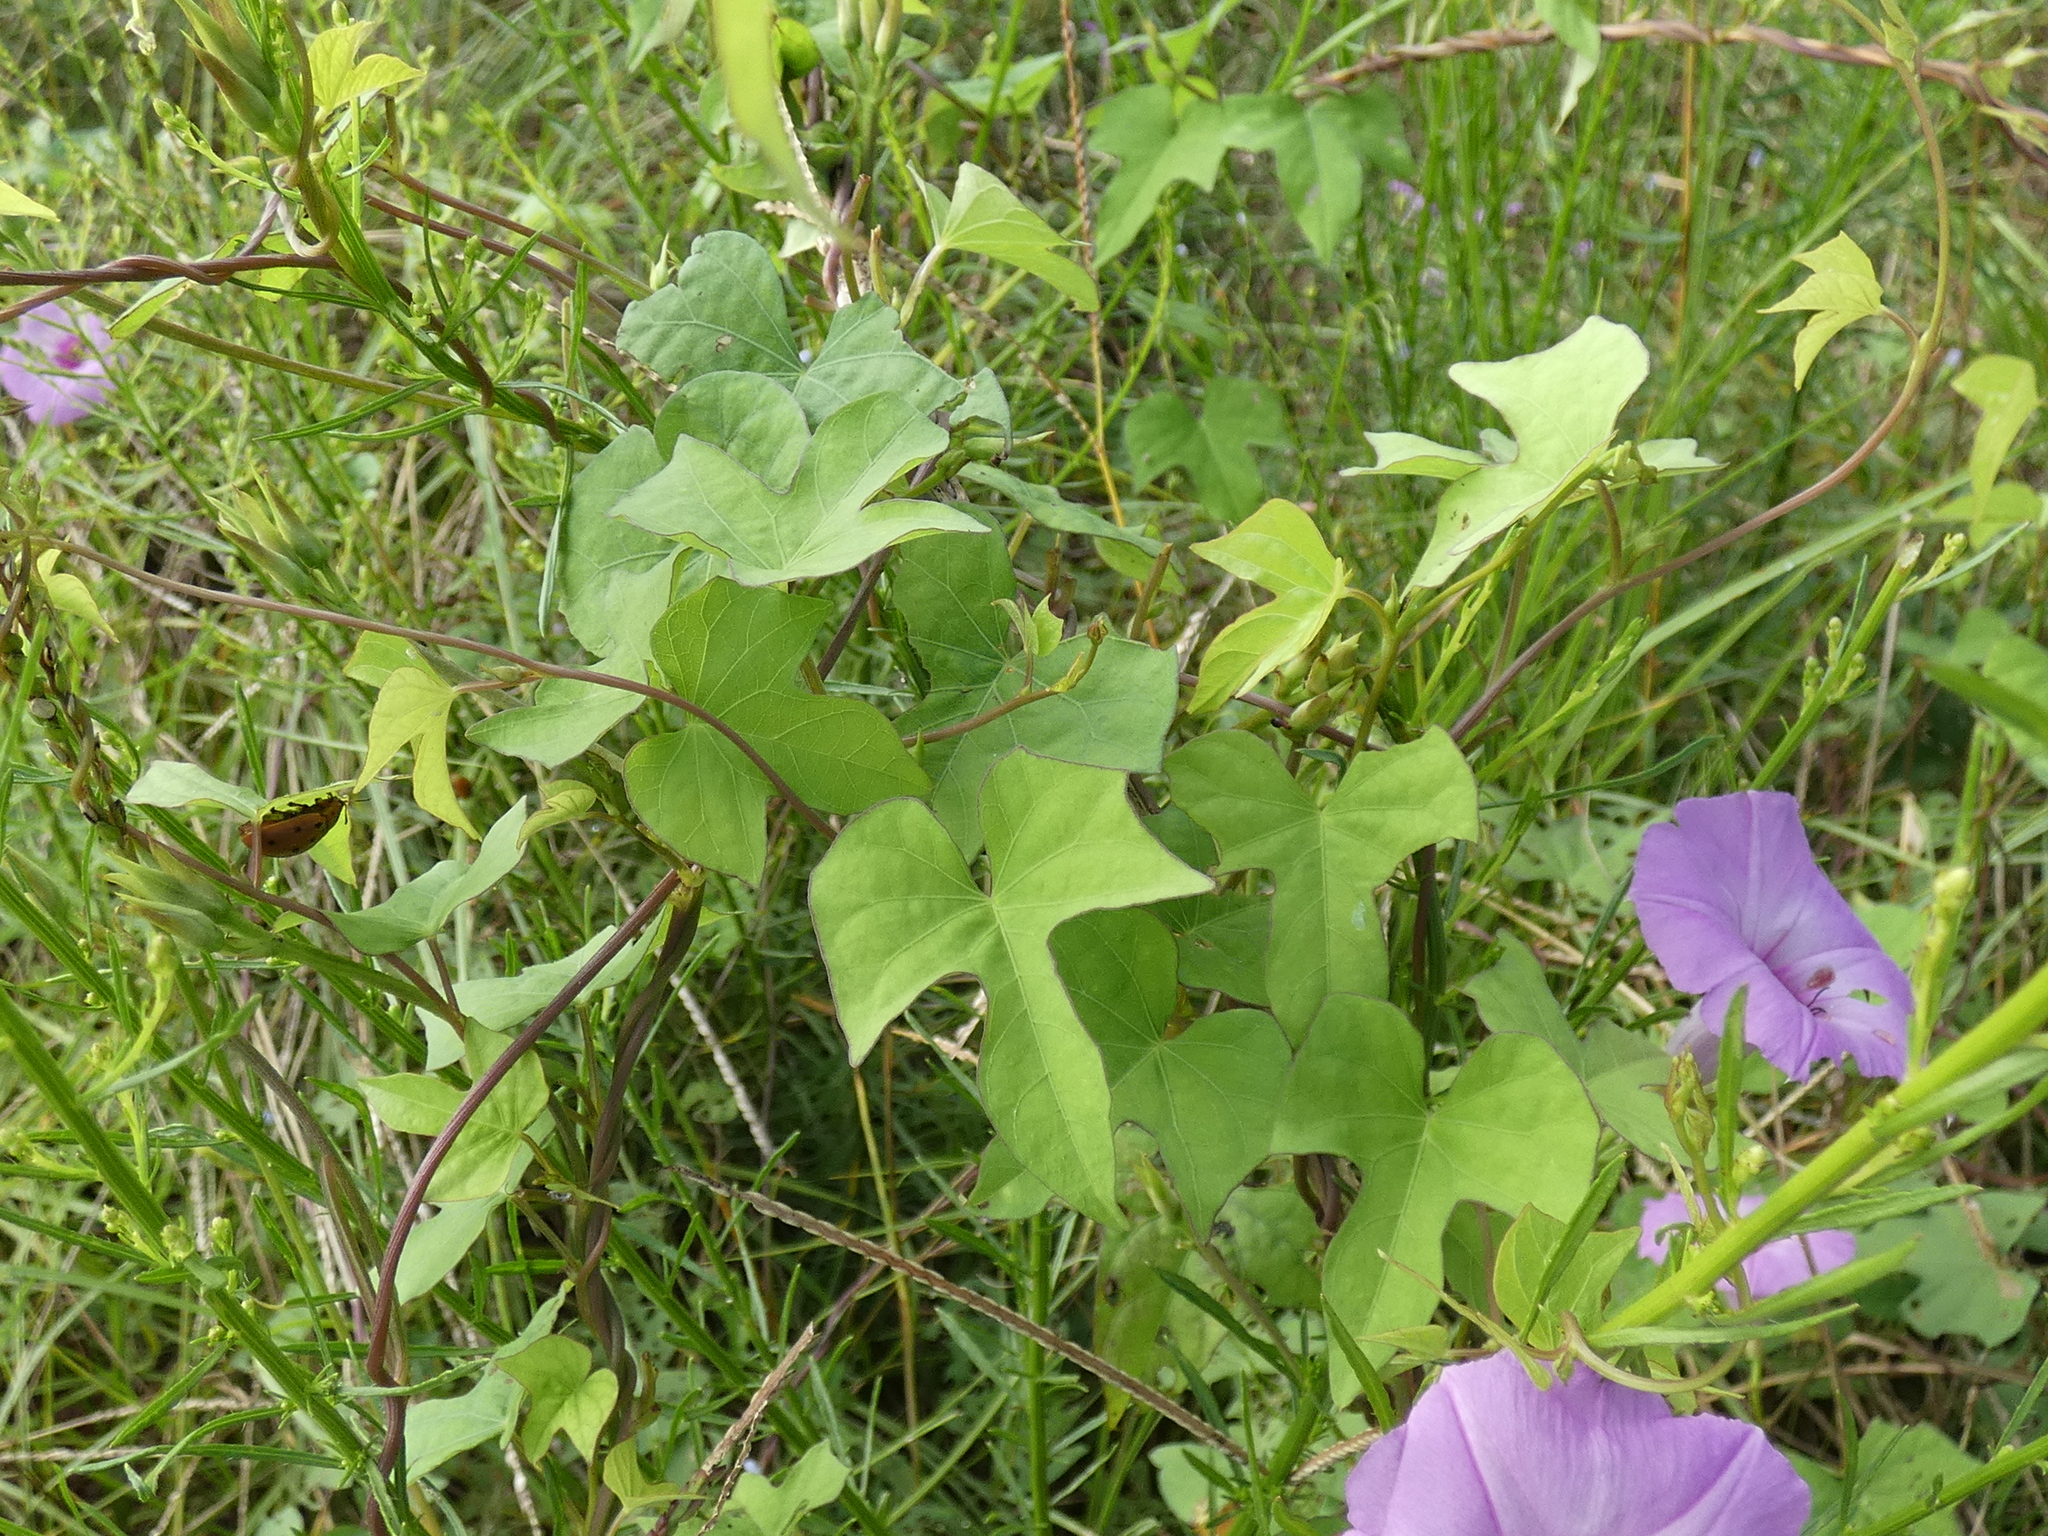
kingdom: Plantae
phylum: Tracheophyta
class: Magnoliopsida
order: Solanales
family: Convolvulaceae
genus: Ipomoea
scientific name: Ipomoea cordatotriloba
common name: Cotton morning glory
